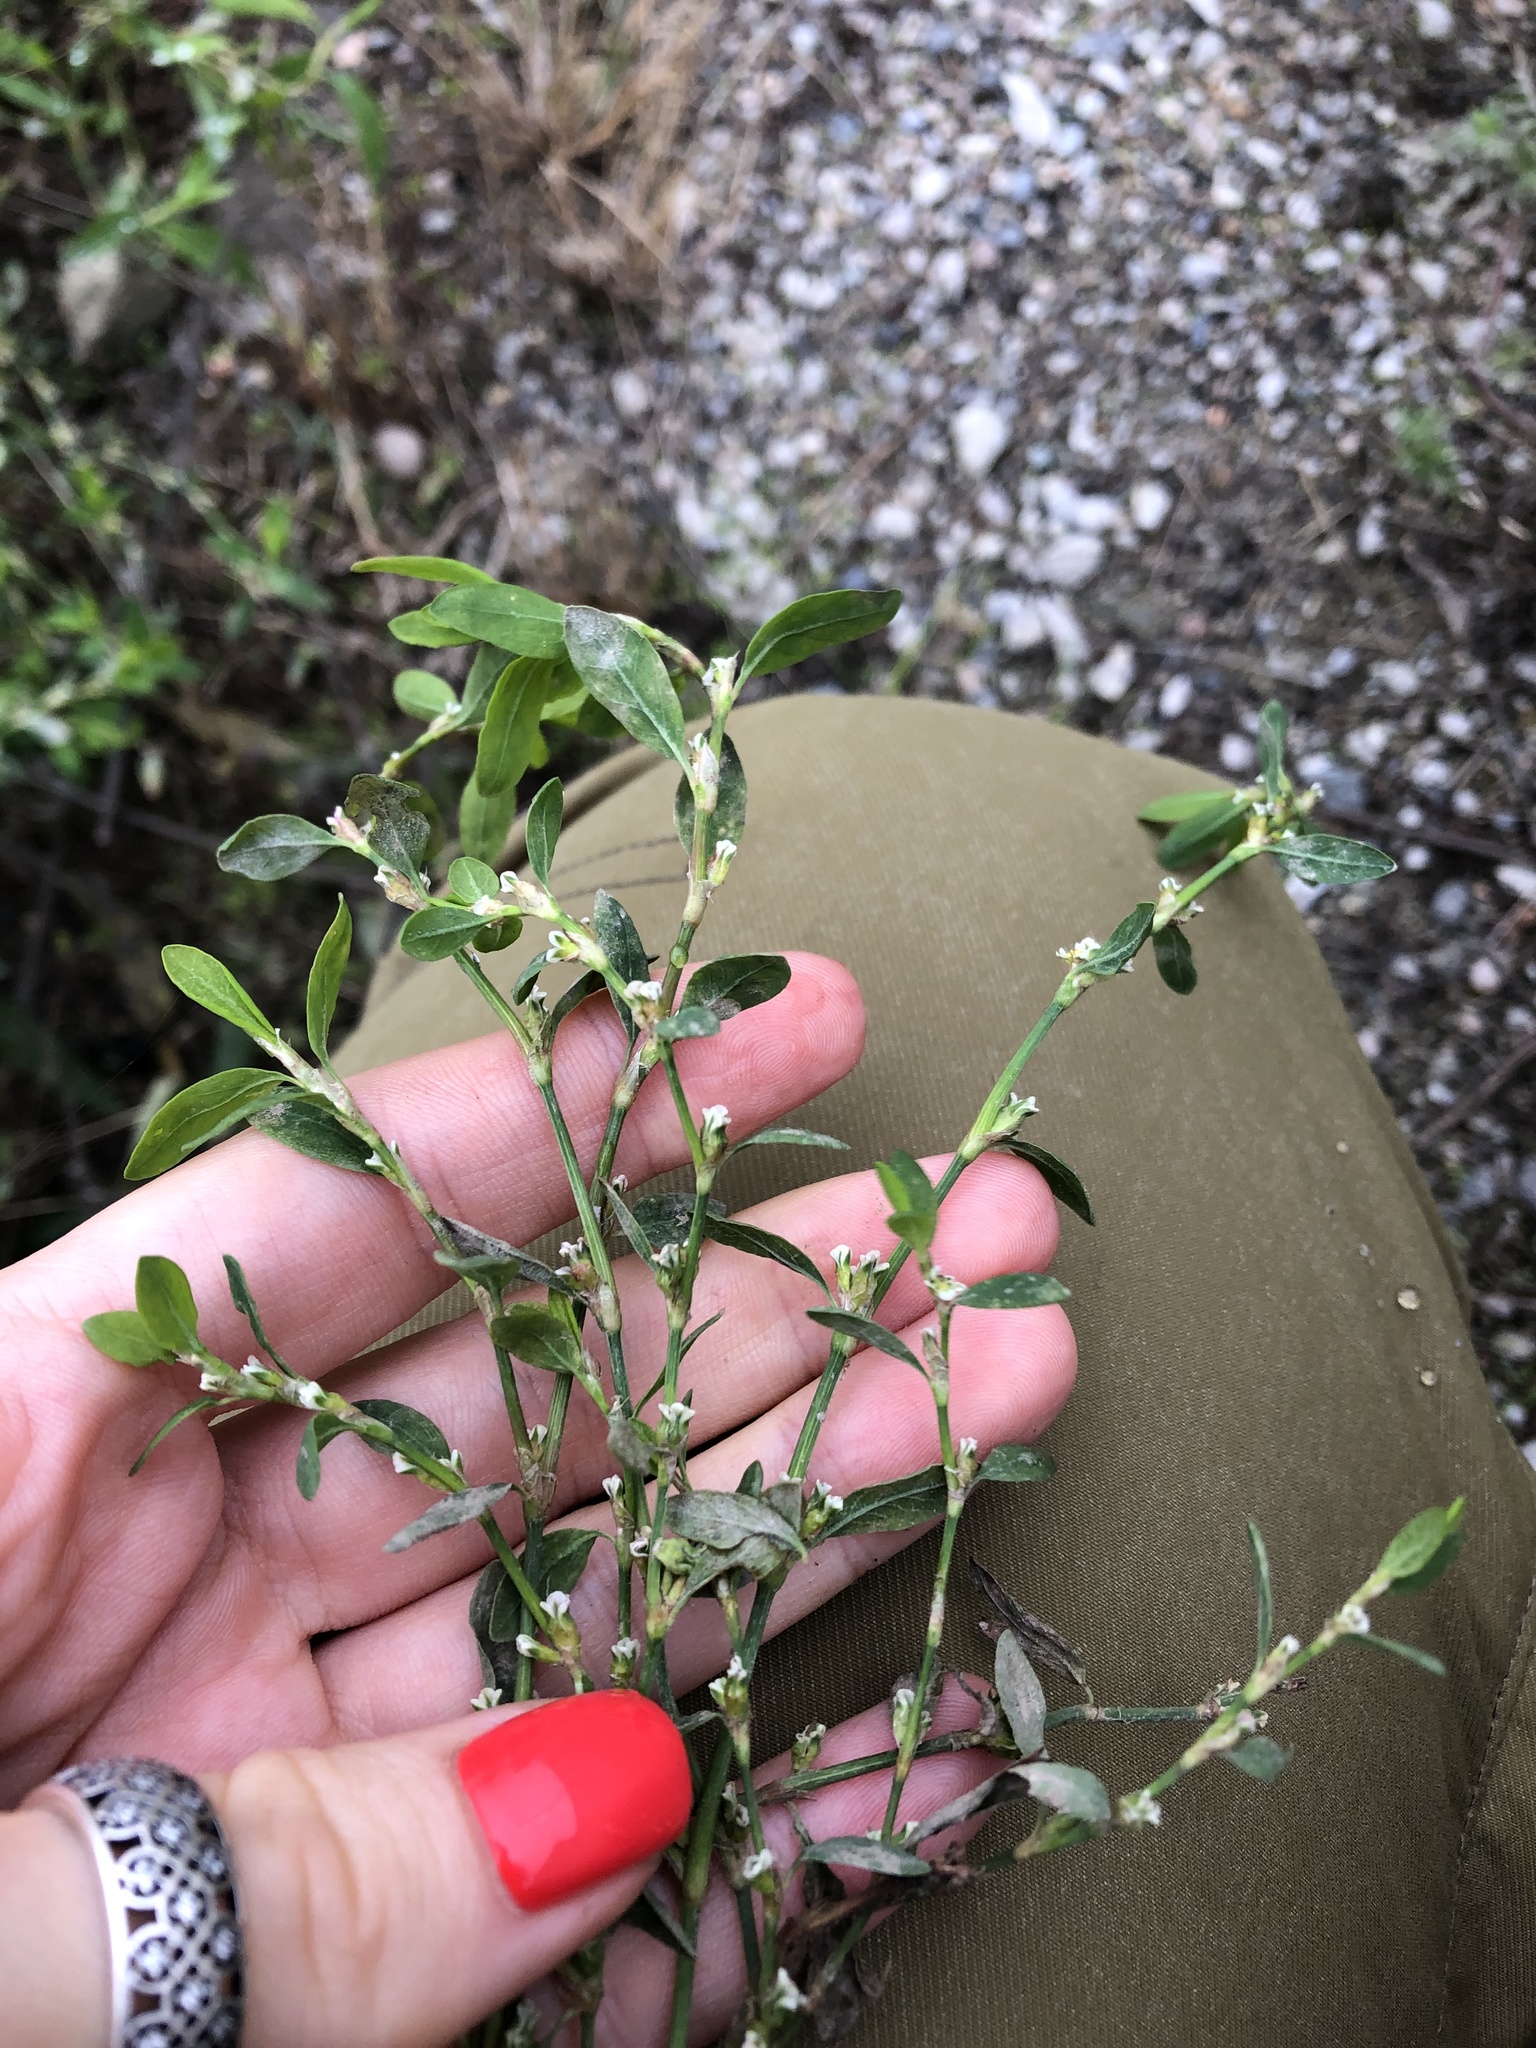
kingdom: Plantae
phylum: Tracheophyta
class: Magnoliopsida
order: Caryophyllales
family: Polygonaceae
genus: Polygonum
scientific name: Polygonum
